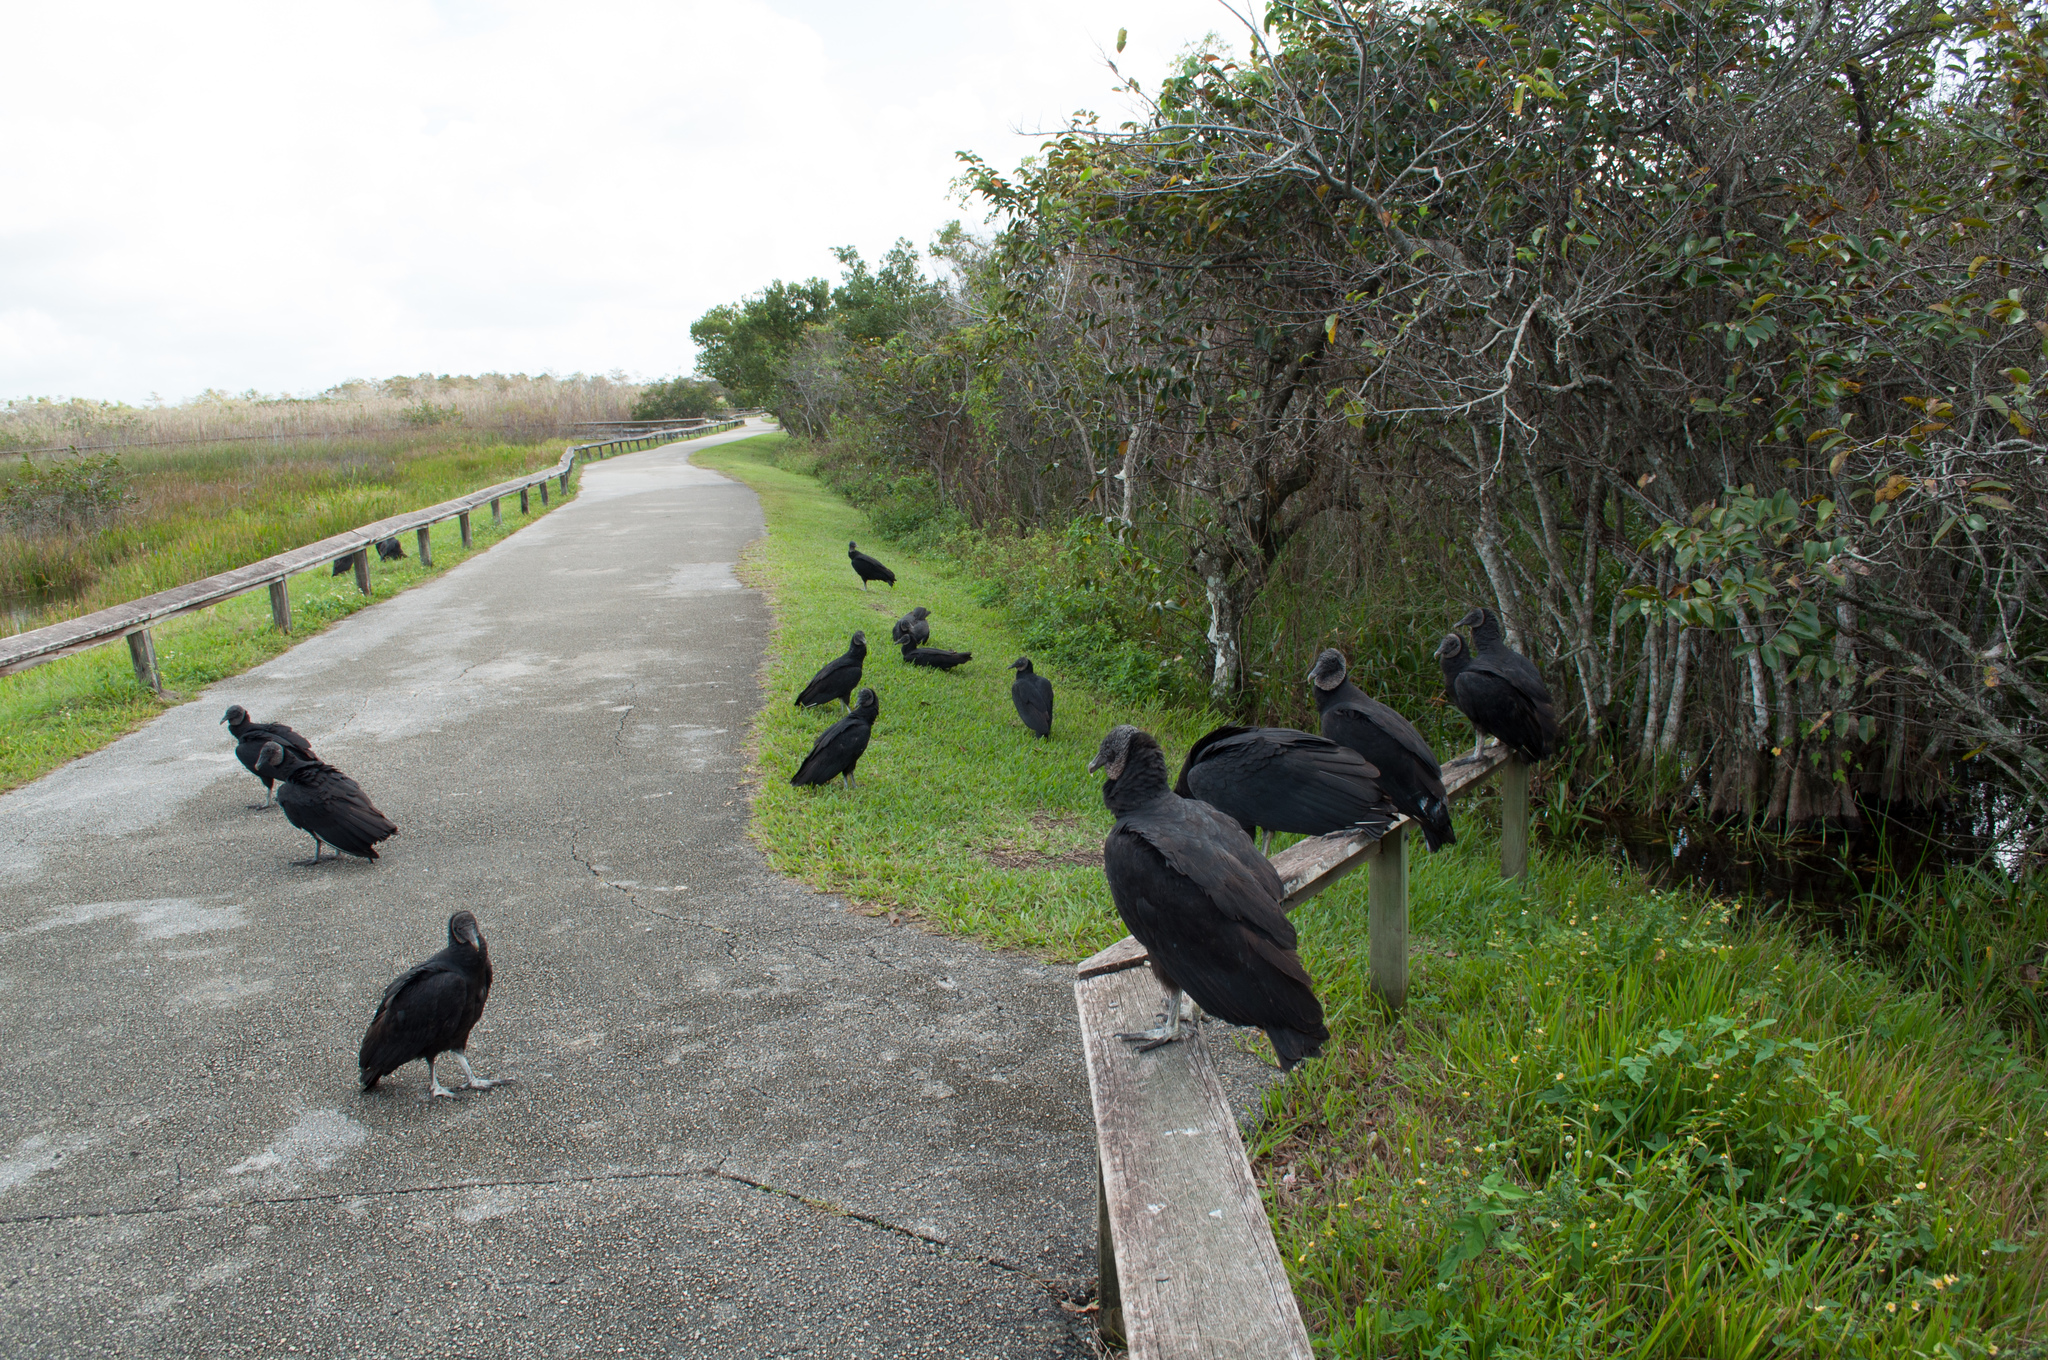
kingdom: Animalia
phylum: Chordata
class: Aves
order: Accipitriformes
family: Cathartidae
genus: Coragyps
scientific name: Coragyps atratus
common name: Black vulture
